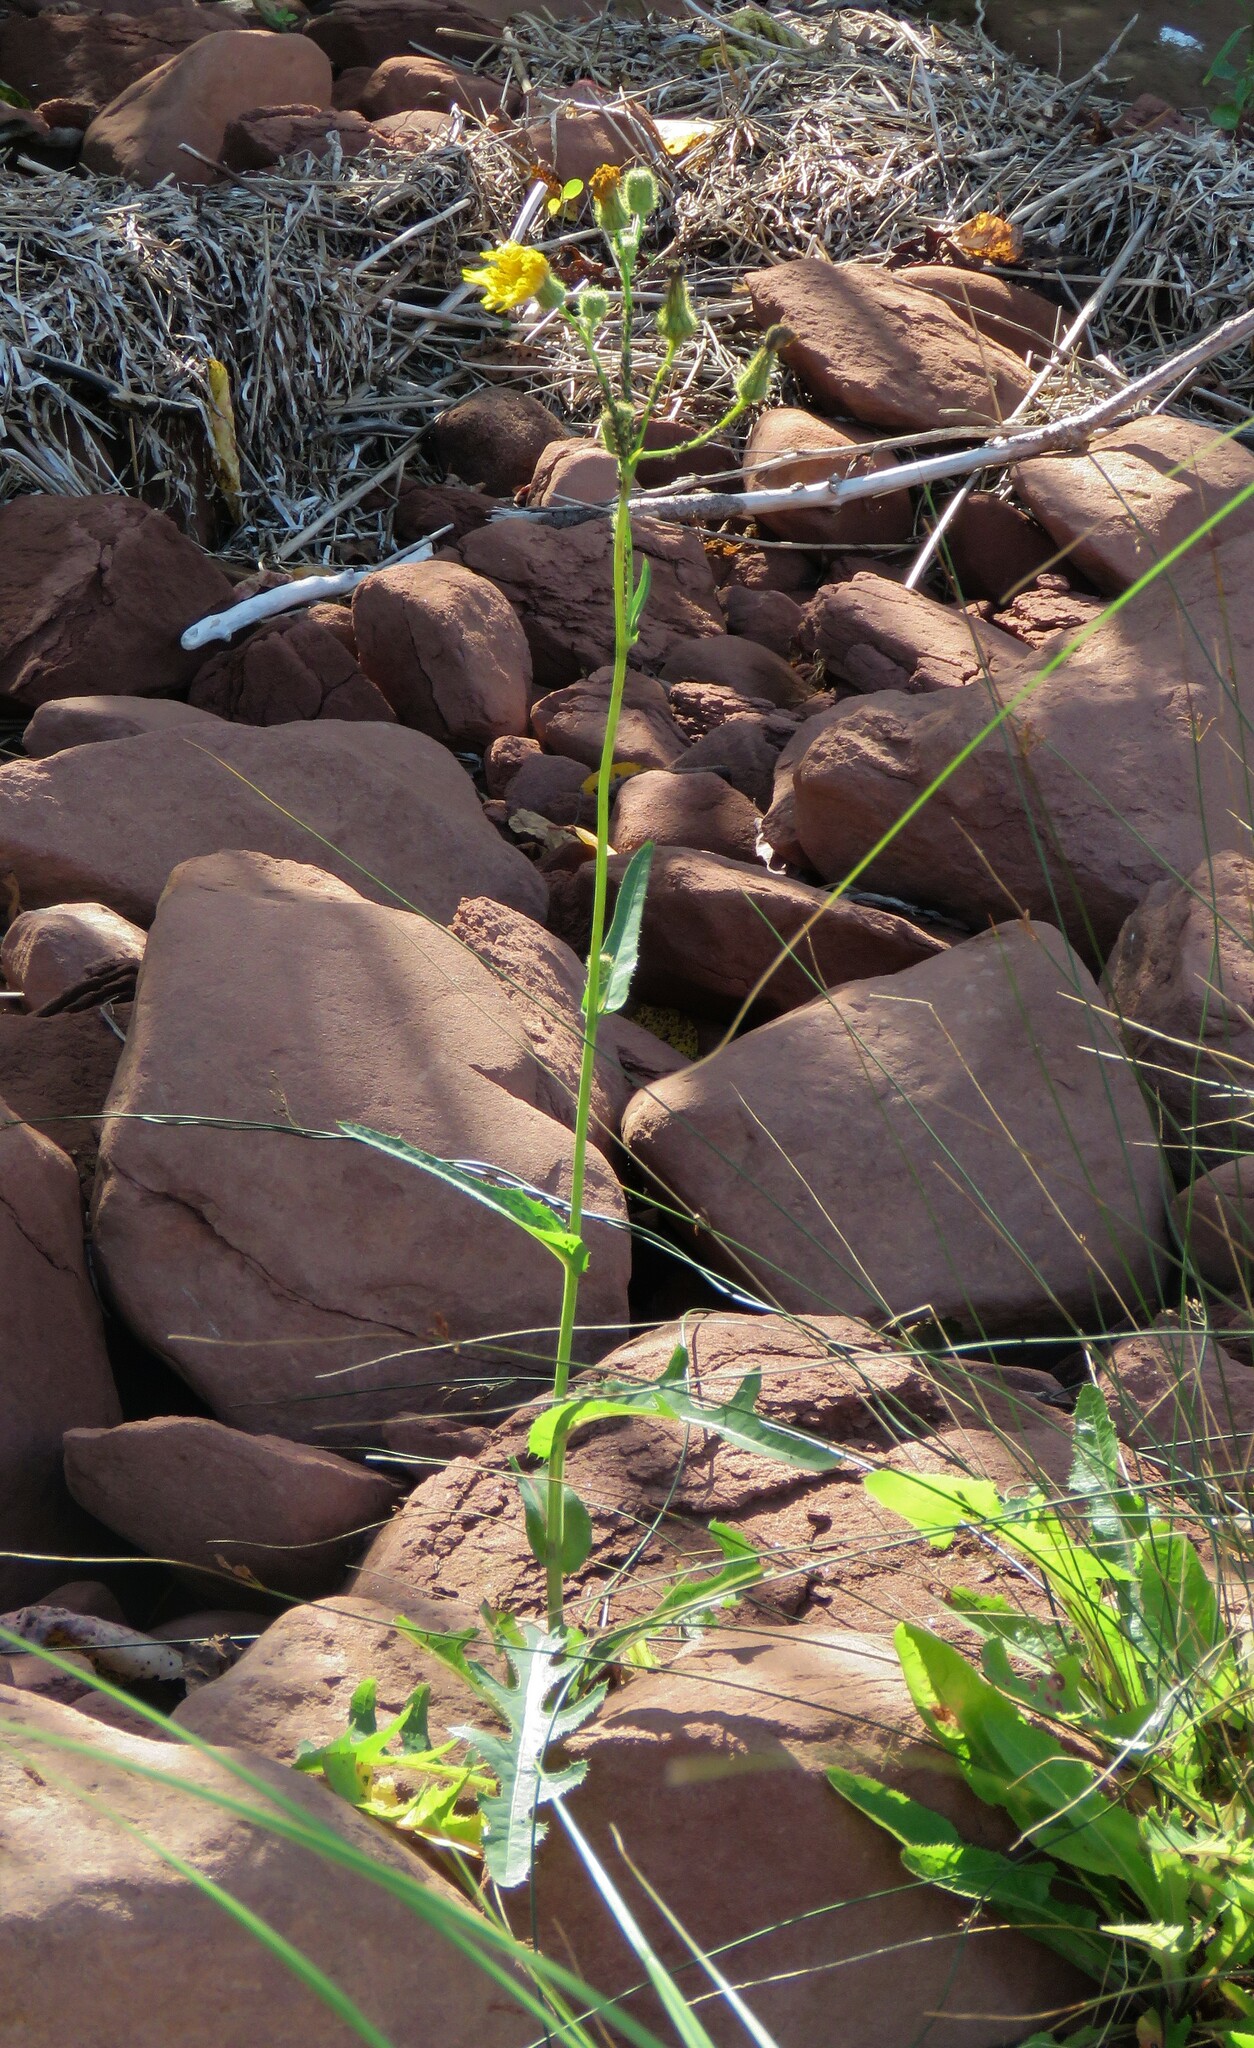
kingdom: Plantae
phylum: Tracheophyta
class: Magnoliopsida
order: Asterales
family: Asteraceae
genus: Sonchus
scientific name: Sonchus arvensis
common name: Perennial sow-thistle
